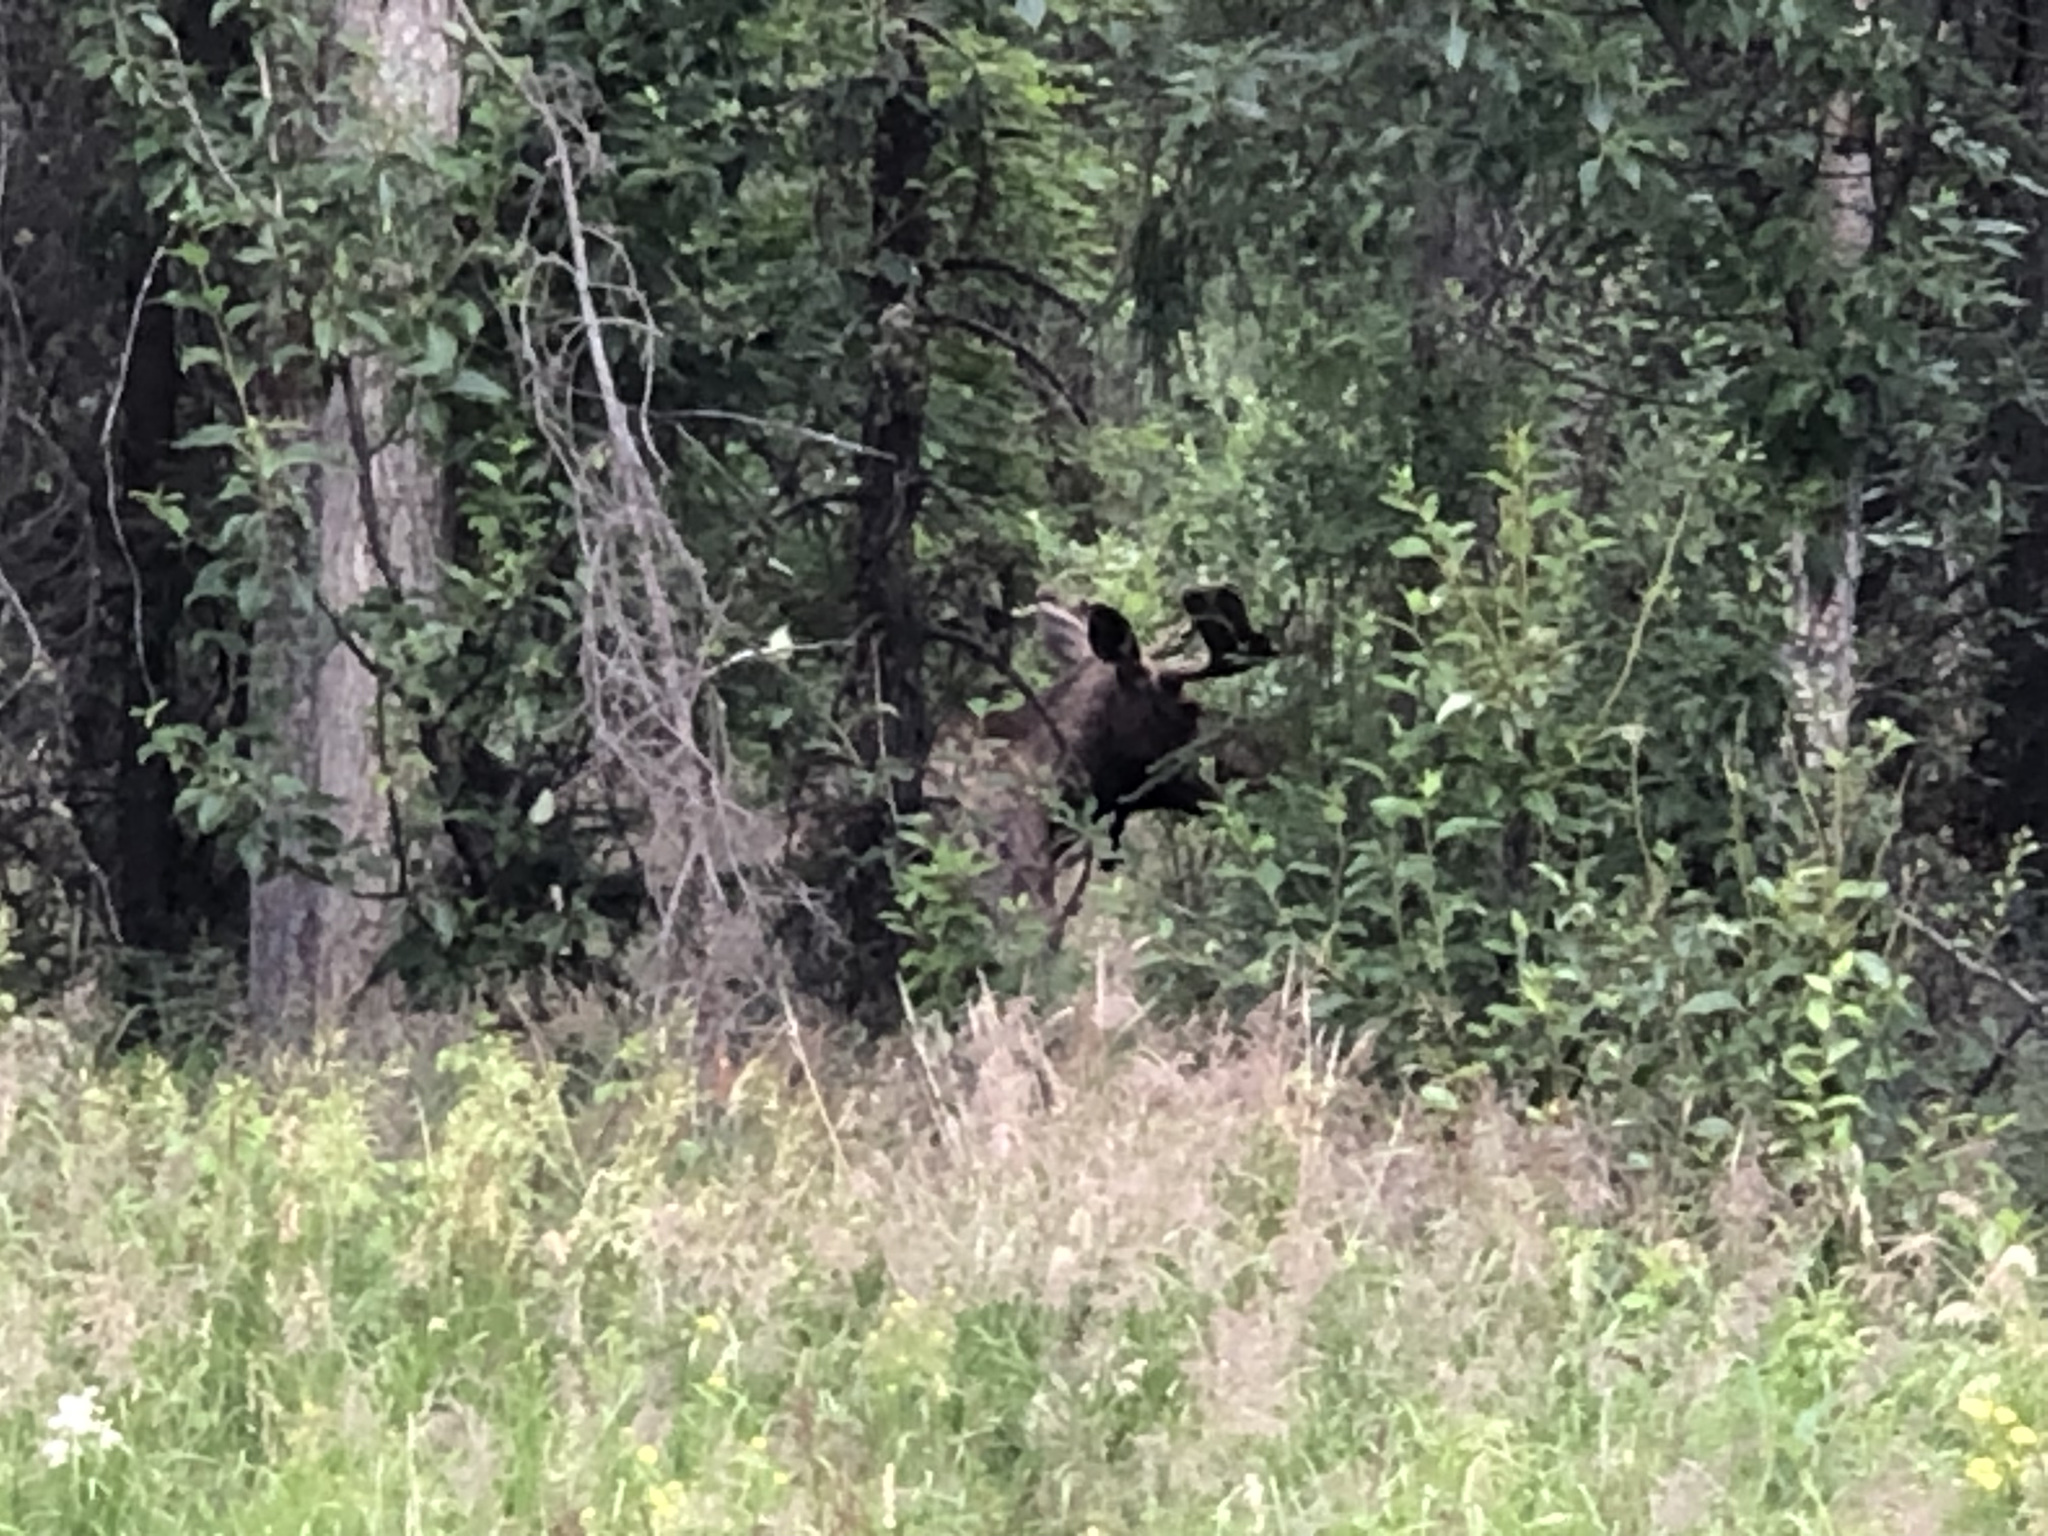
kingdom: Animalia
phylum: Chordata
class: Mammalia
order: Artiodactyla
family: Cervidae
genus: Alces
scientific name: Alces alces
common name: Moose
